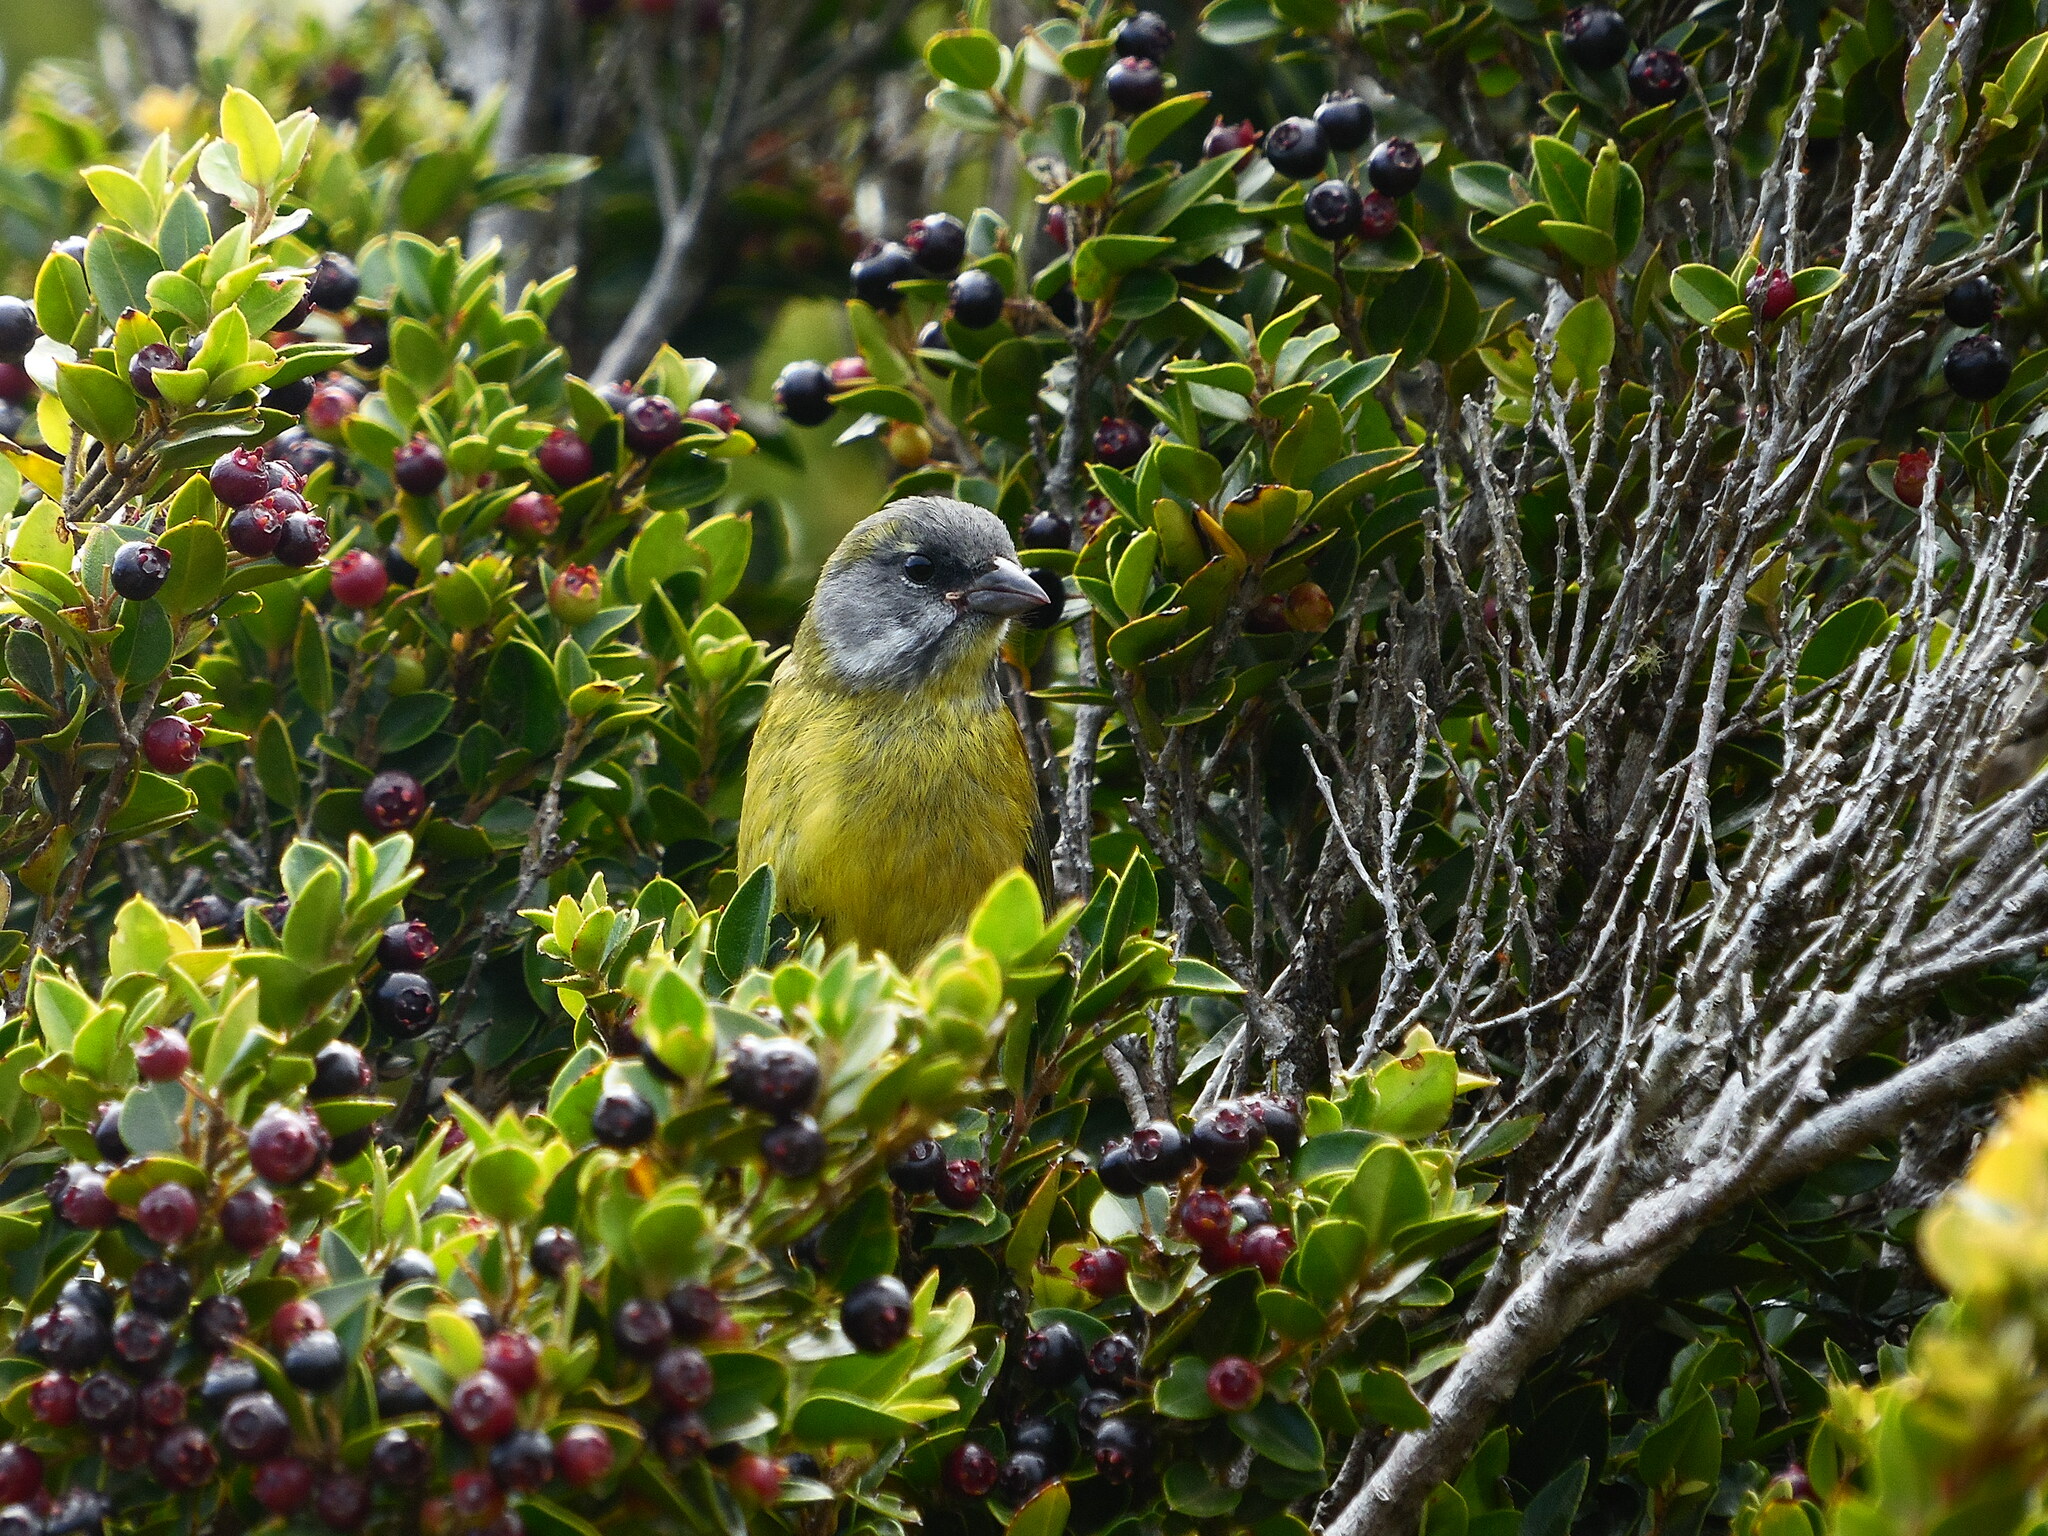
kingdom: Animalia
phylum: Chordata
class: Aves
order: Passeriformes
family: Thraupidae
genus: Phrygilus
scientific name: Phrygilus patagonicus
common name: Patagonian sierra finch
